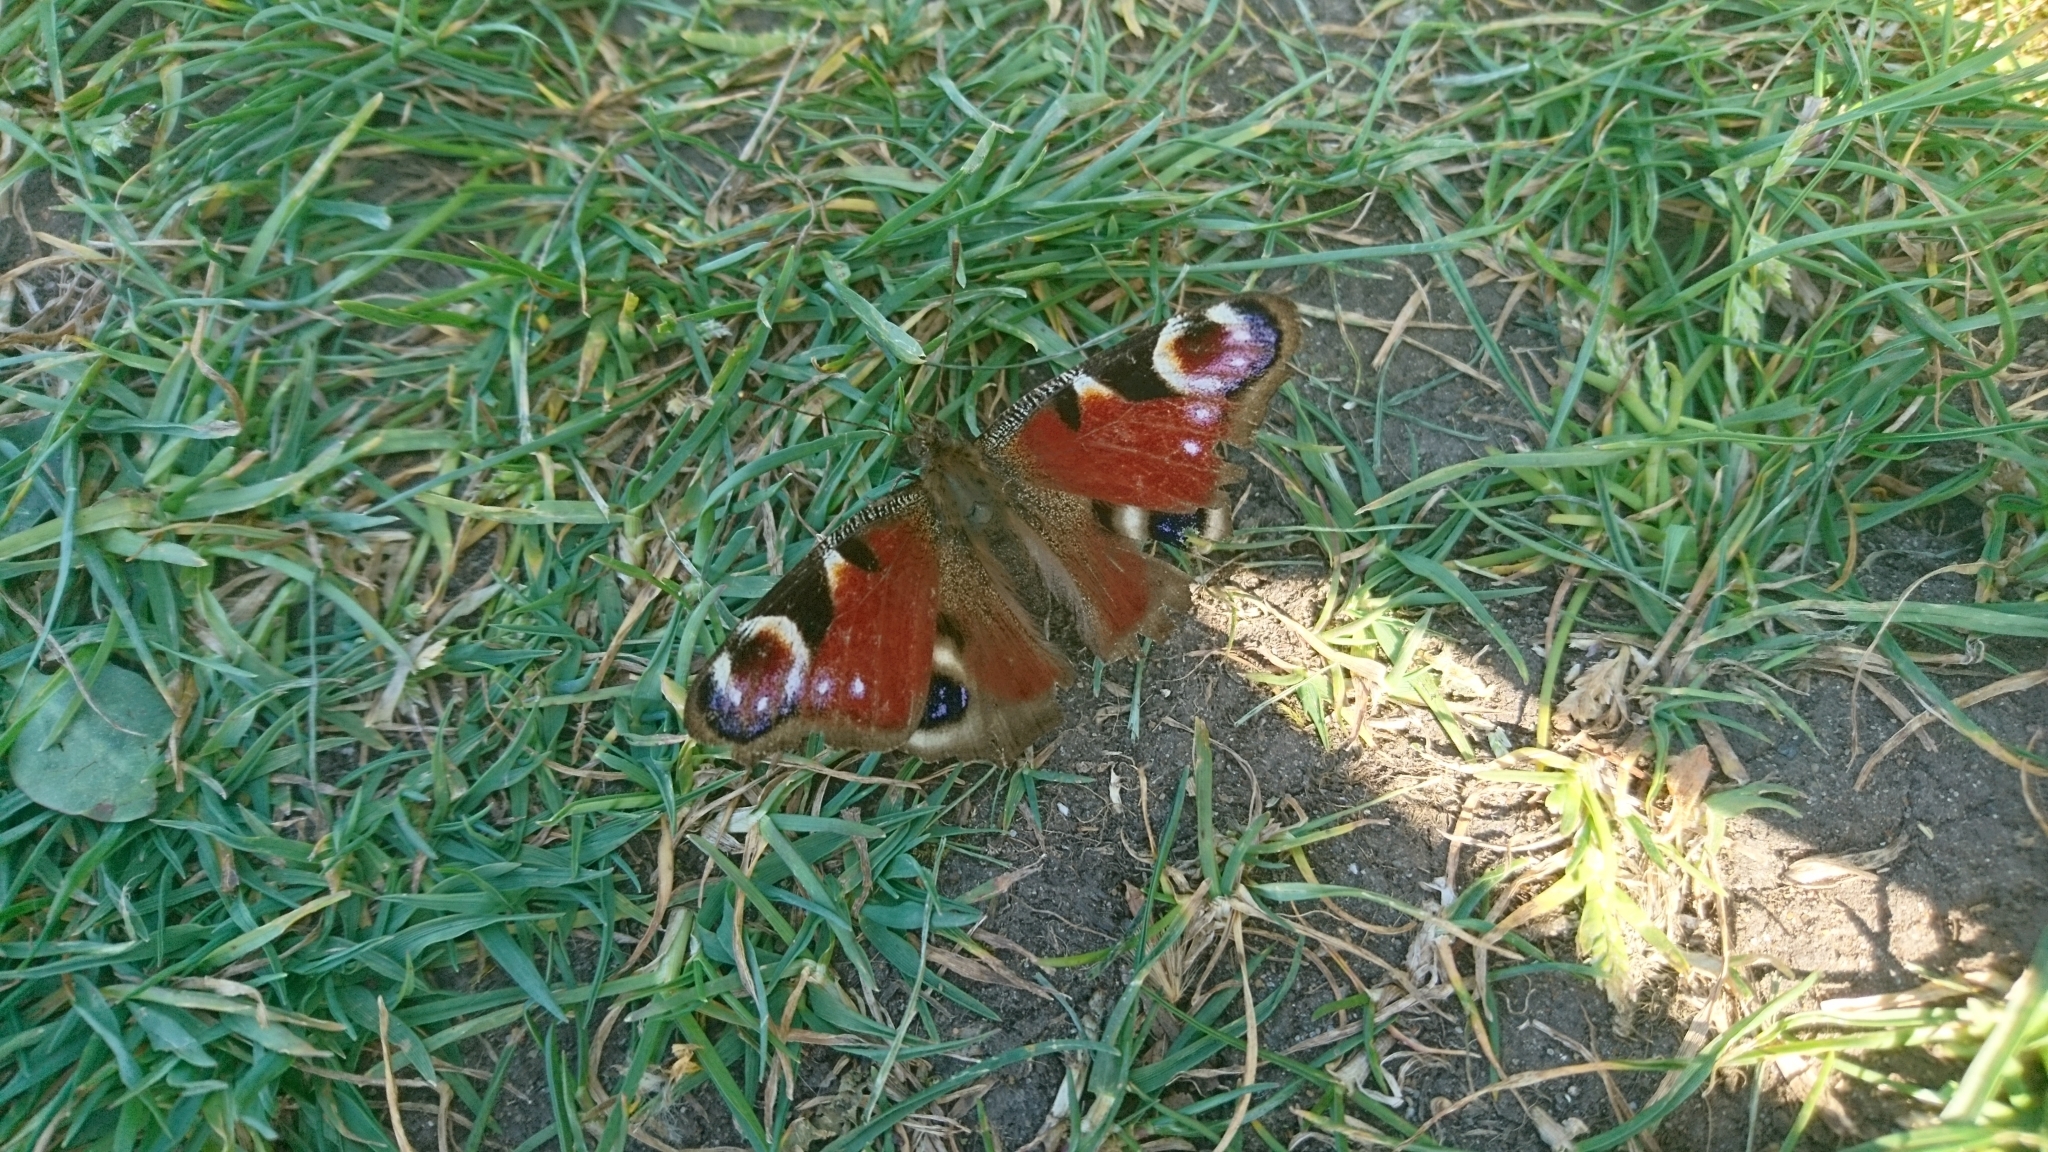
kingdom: Animalia
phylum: Arthropoda
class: Insecta
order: Lepidoptera
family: Nymphalidae
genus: Aglais
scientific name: Aglais io
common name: Peacock
